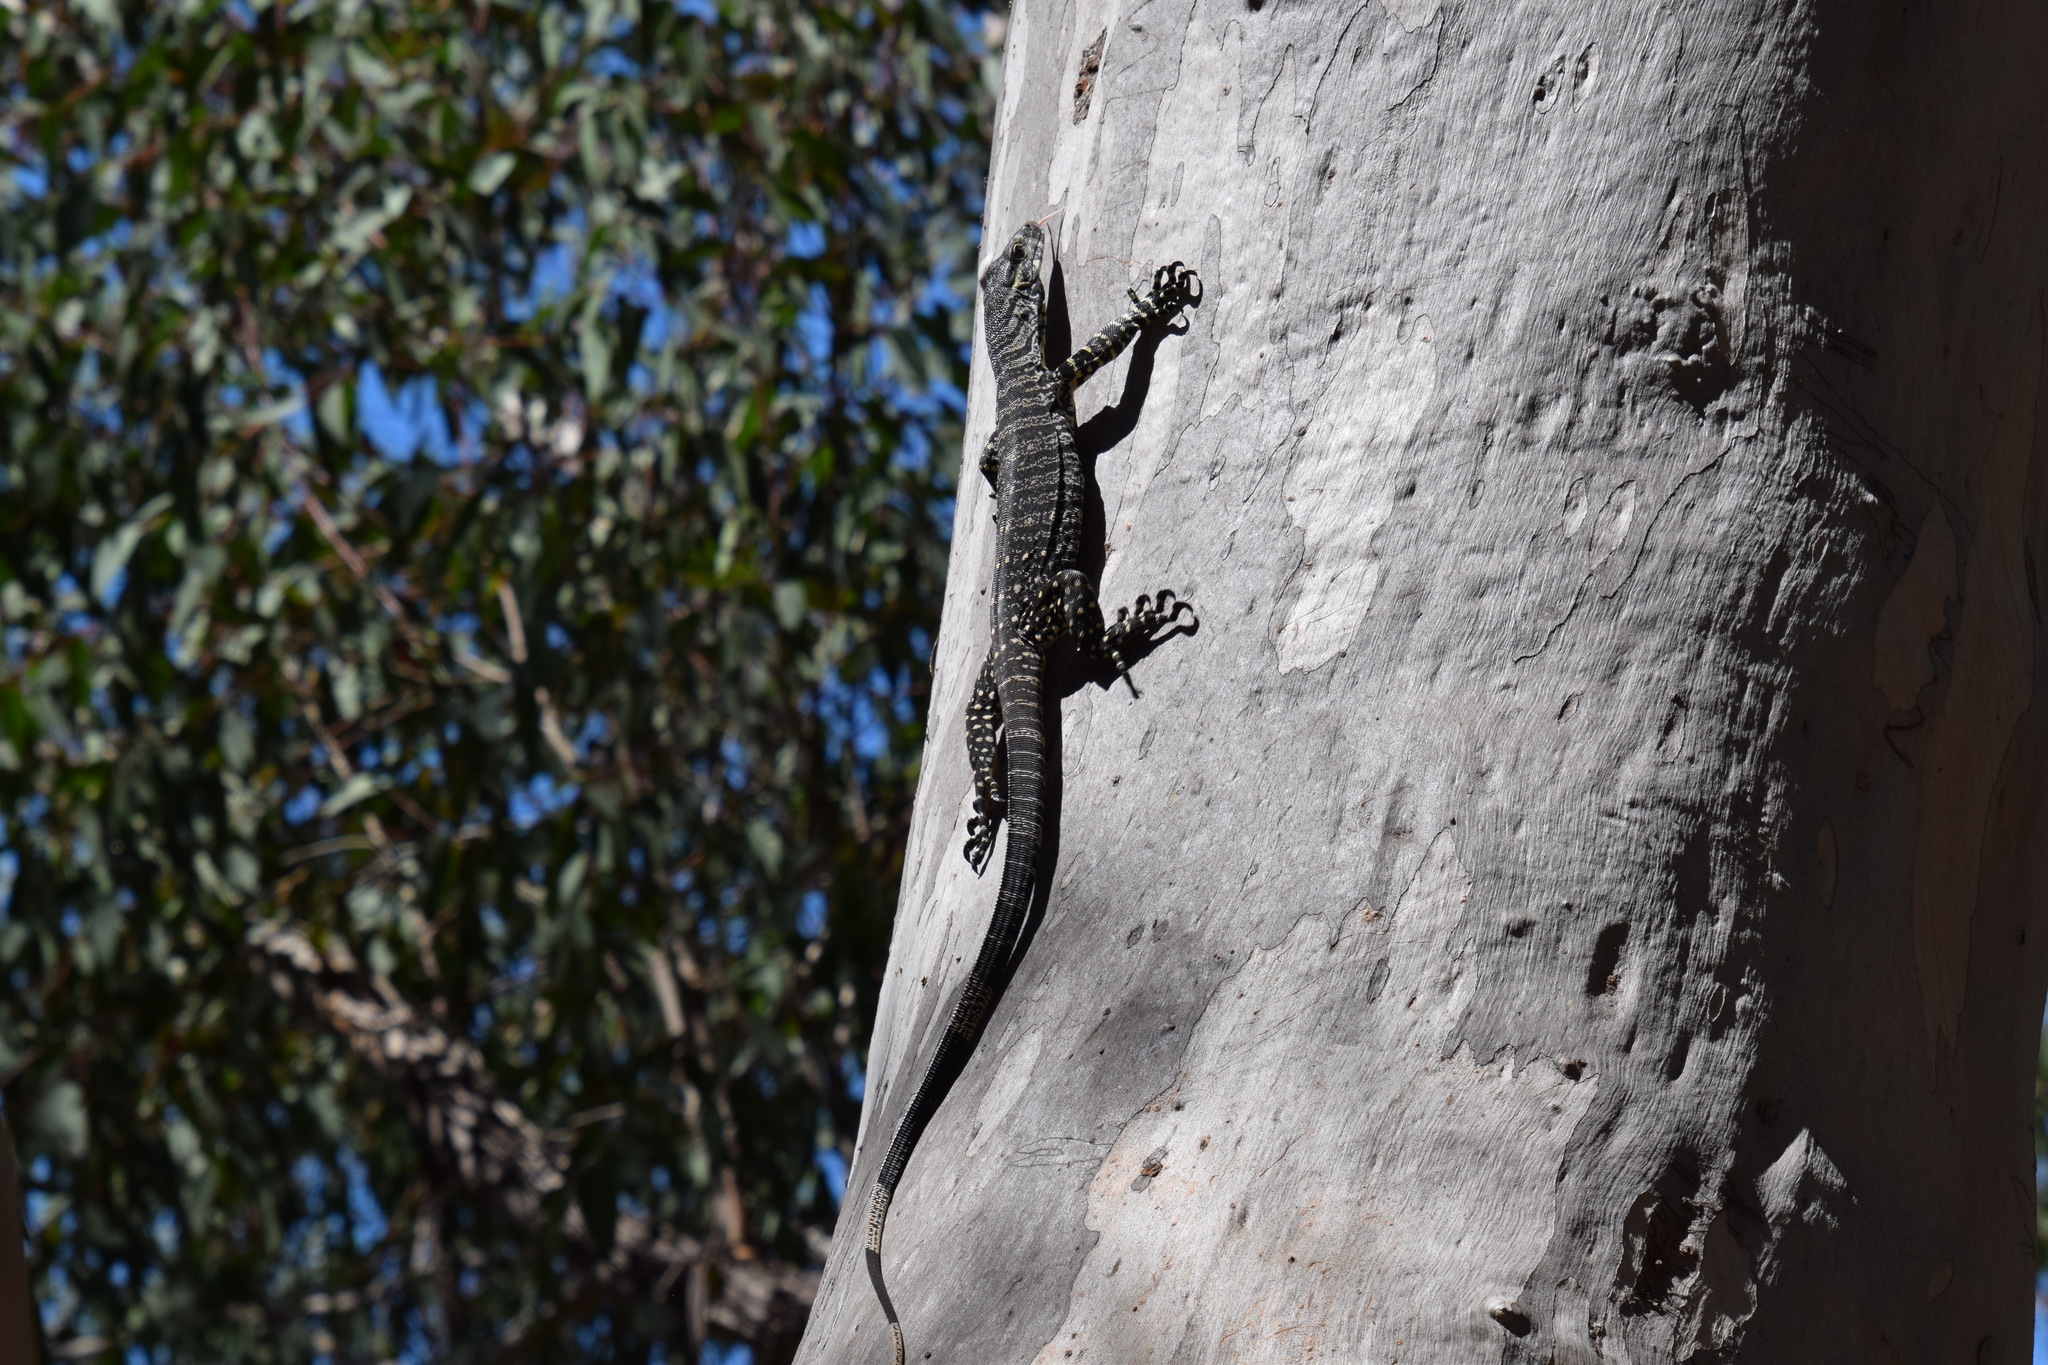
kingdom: Animalia
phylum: Chordata
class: Squamata
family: Varanidae
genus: Varanus
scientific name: Varanus varius
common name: Lace monitor
